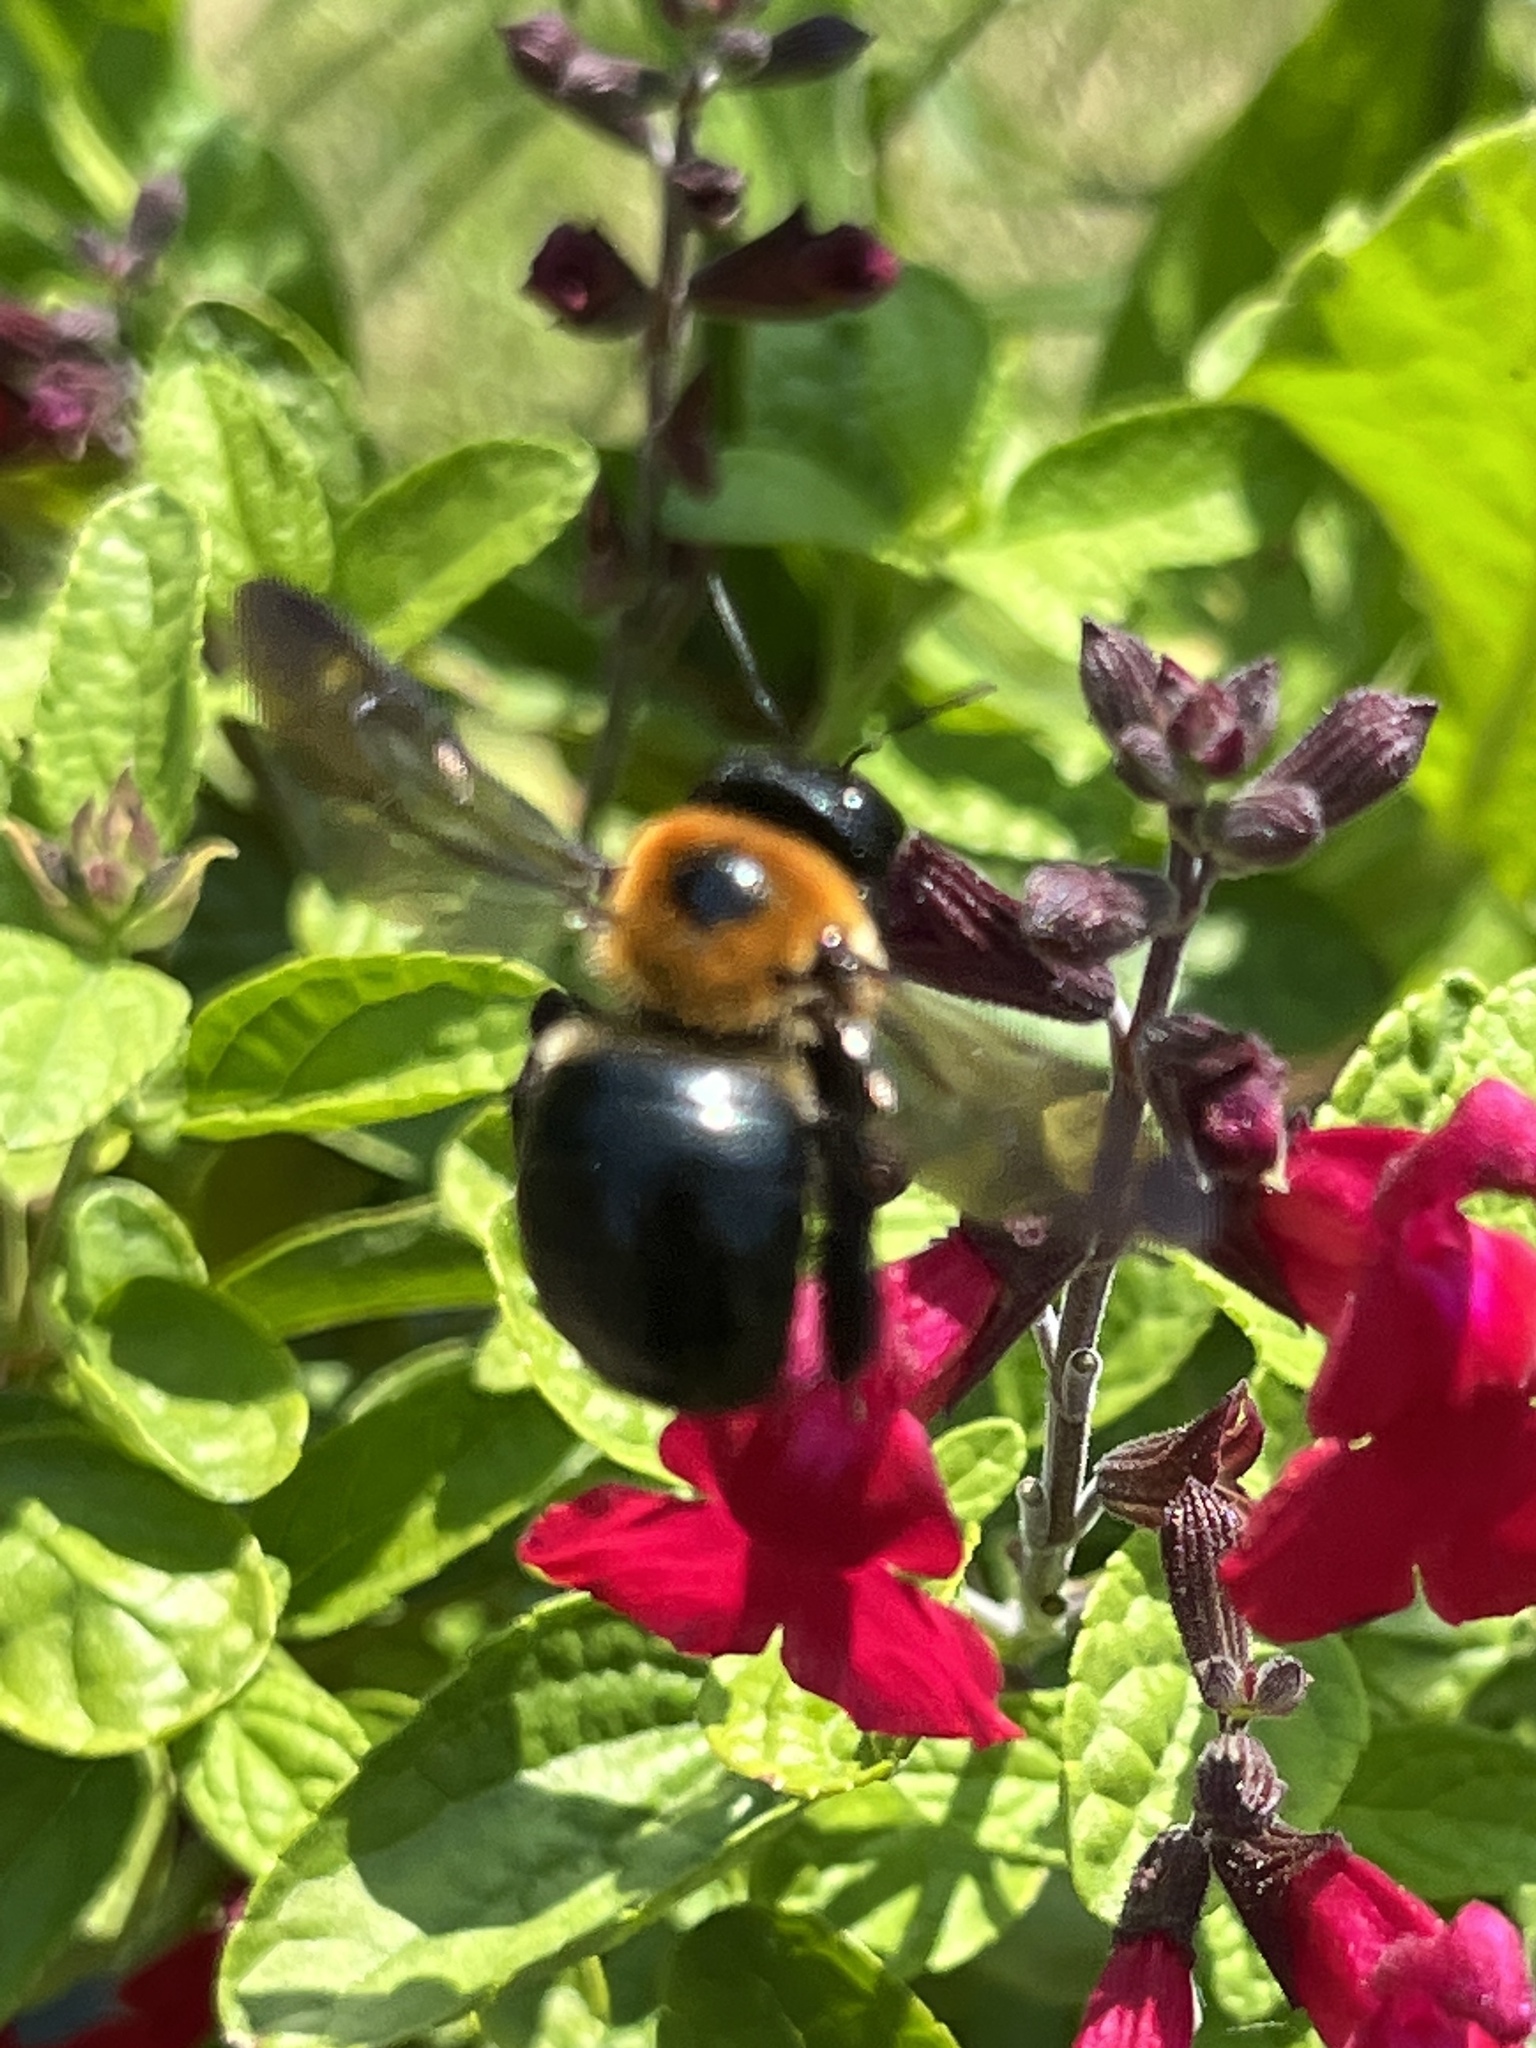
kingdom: Animalia
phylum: Arthropoda
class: Insecta
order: Hymenoptera
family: Apidae
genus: Xylocopa
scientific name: Xylocopa virginica
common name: Carpenter bee
